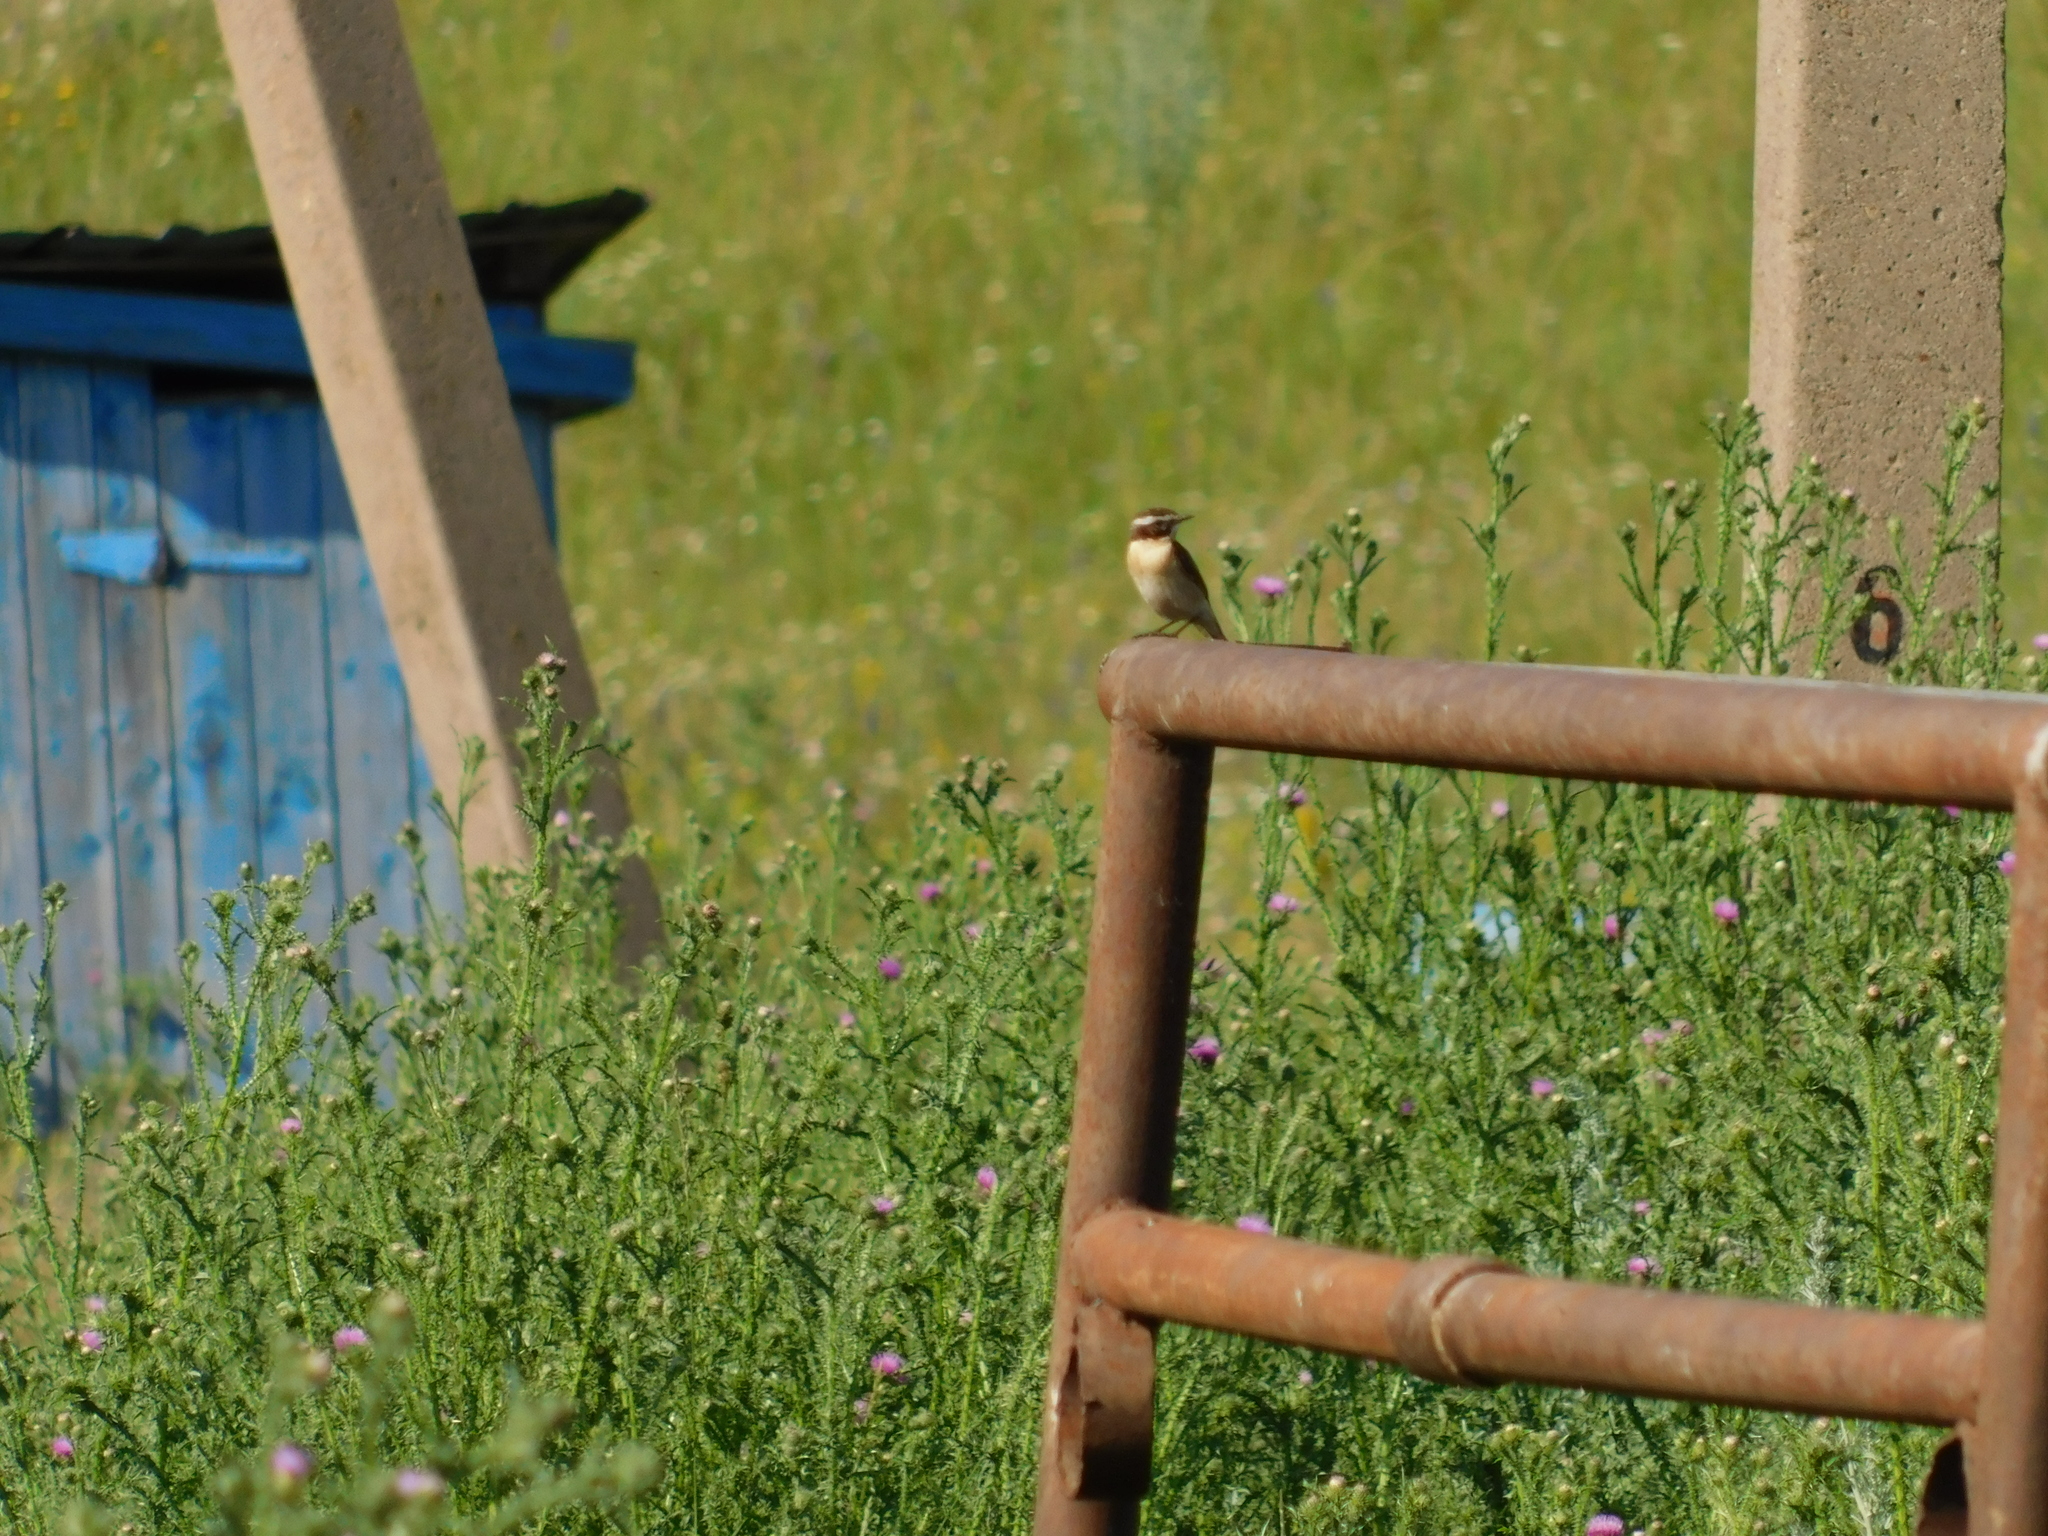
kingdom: Animalia
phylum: Chordata
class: Aves
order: Passeriformes
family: Muscicapidae
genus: Saxicola
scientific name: Saxicola rubetra
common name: Whinchat
